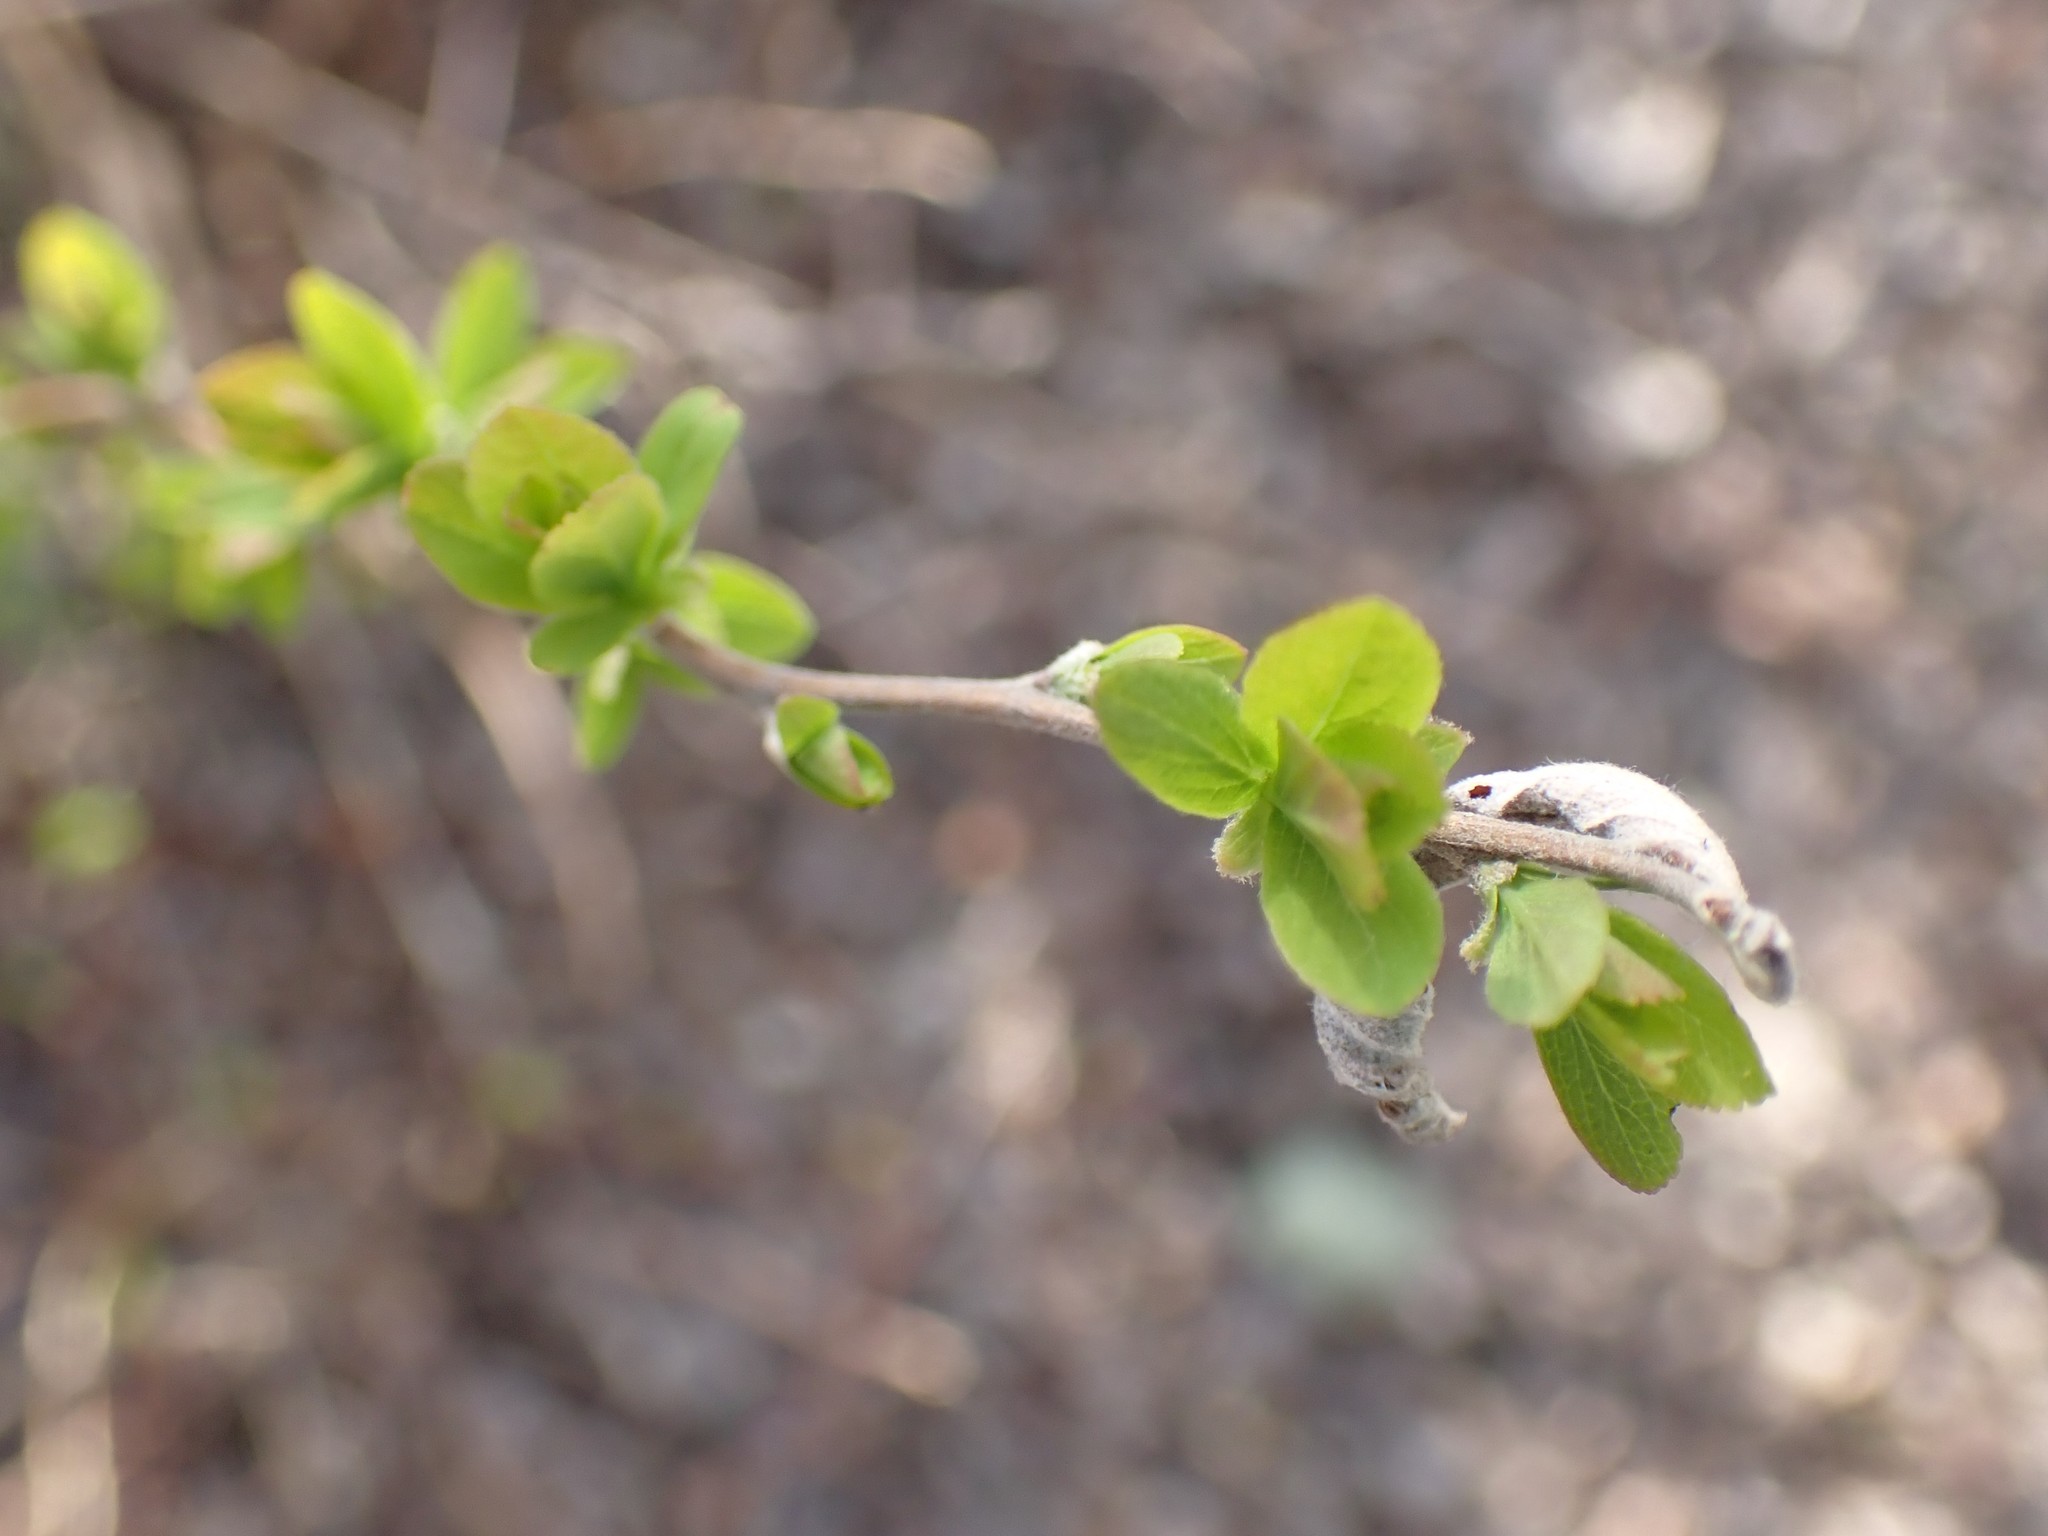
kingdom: Animalia
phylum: Arthropoda
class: Insecta
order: Hymenoptera
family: Cynipidae
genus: Diplolepis
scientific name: Diplolepis oregonensis
